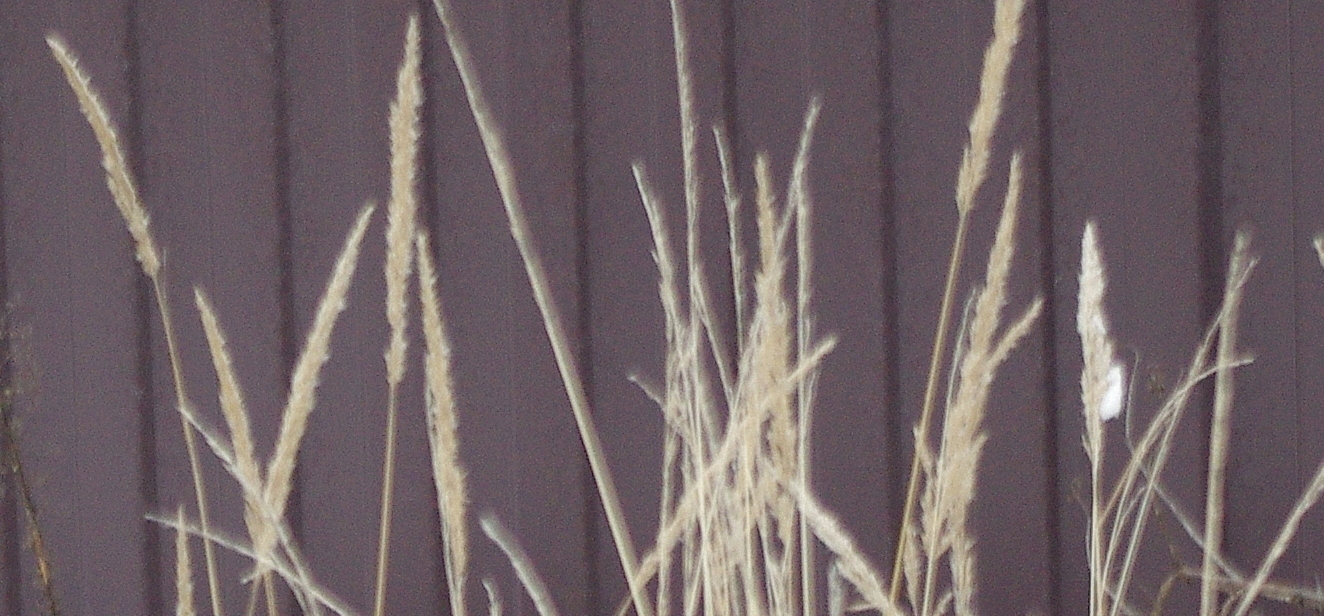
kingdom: Plantae
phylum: Tracheophyta
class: Liliopsida
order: Poales
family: Poaceae
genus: Calamagrostis
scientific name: Calamagrostis epigejos
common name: Wood small-reed
